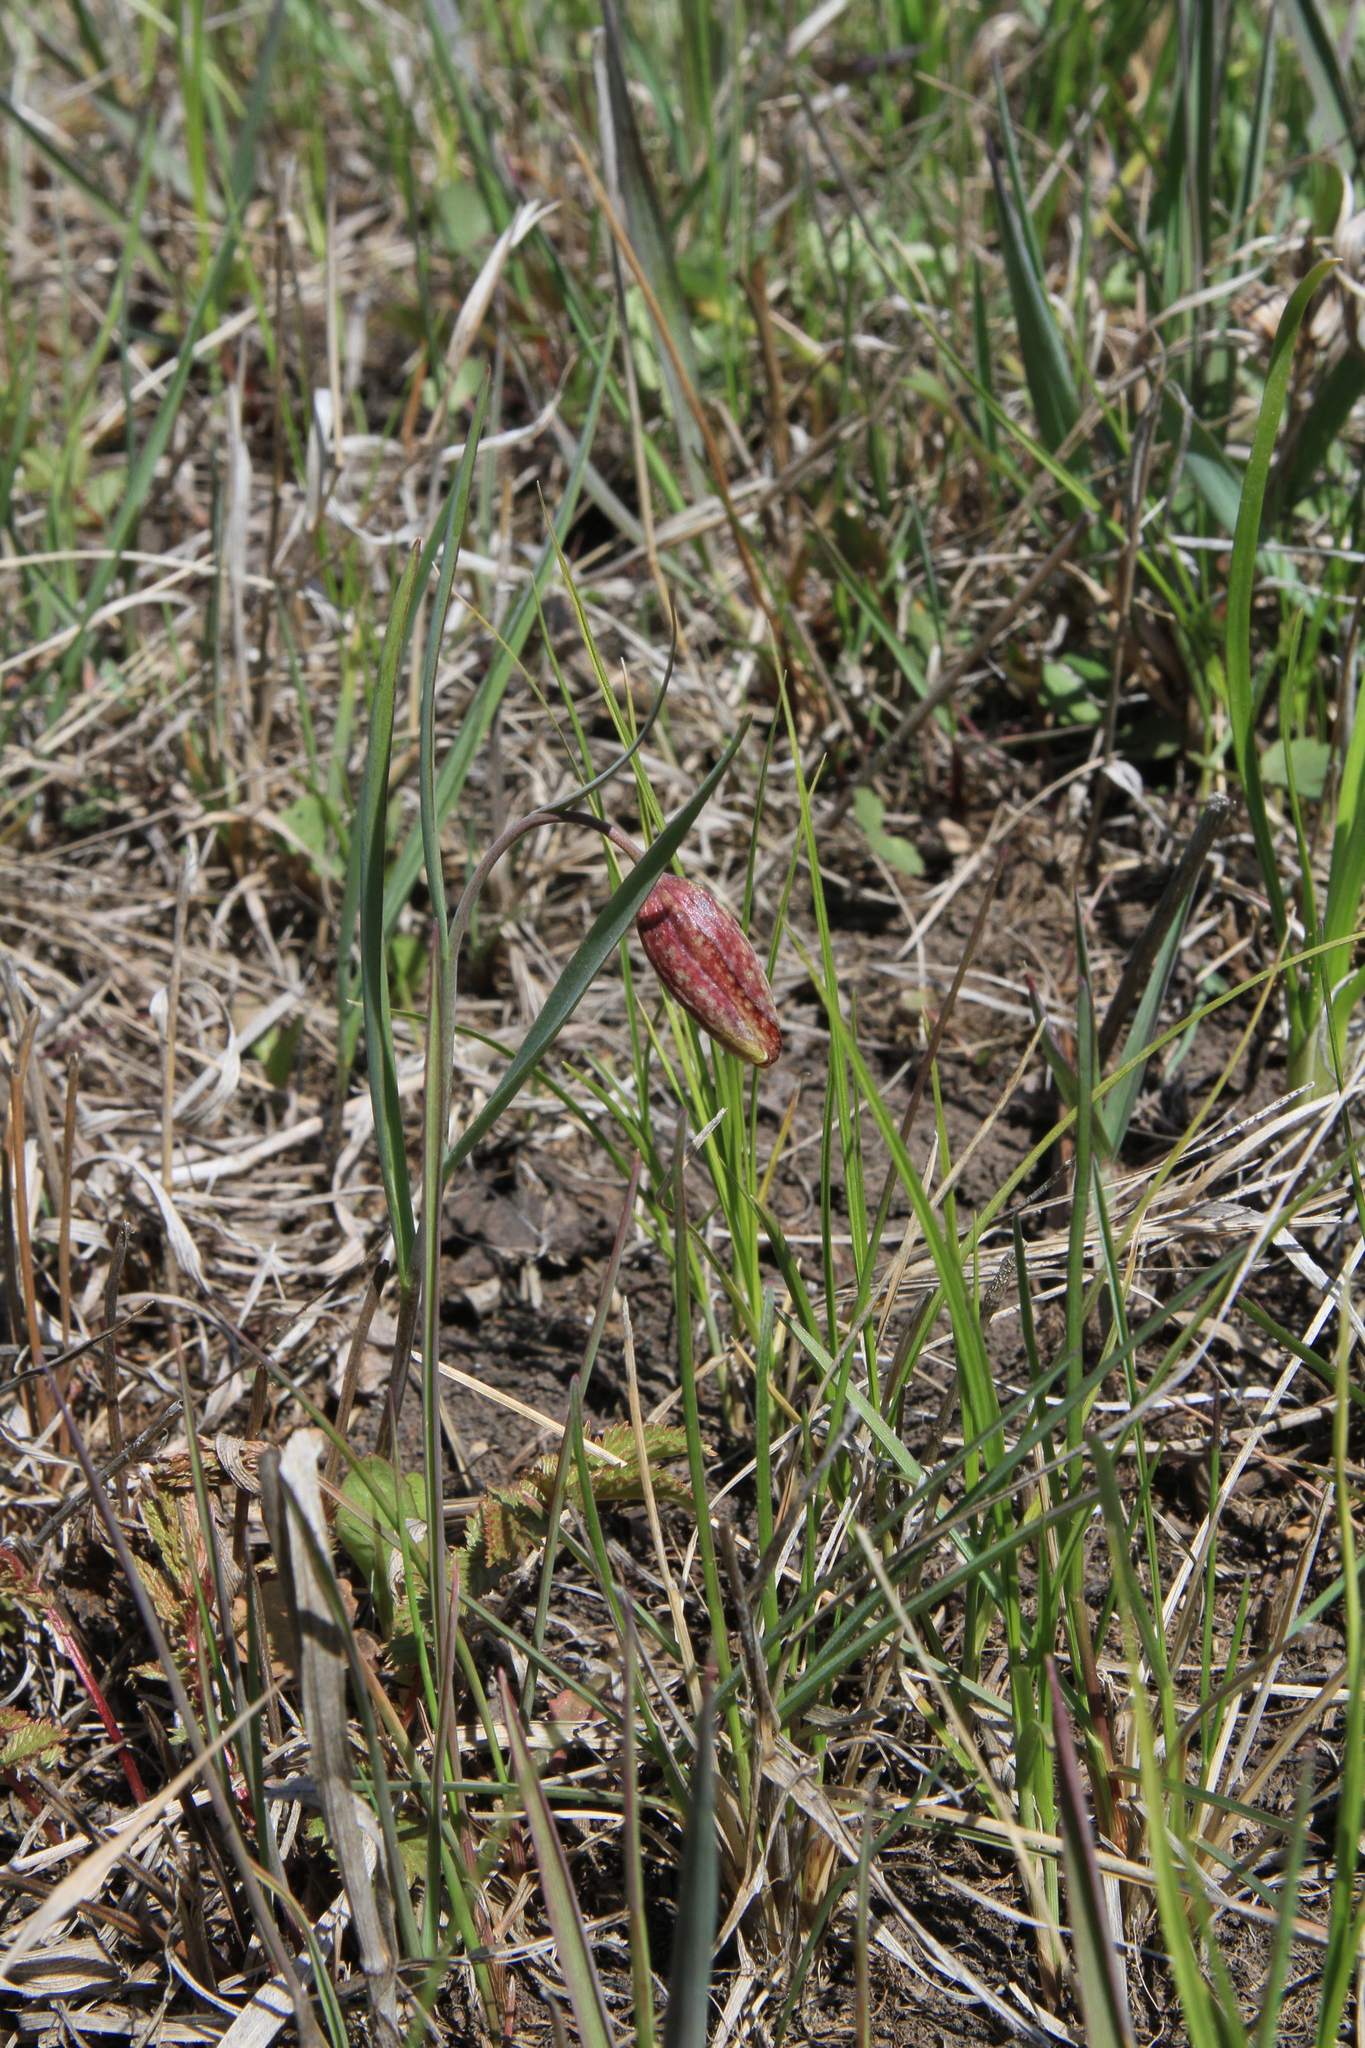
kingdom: Plantae
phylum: Tracheophyta
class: Liliopsida
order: Liliales
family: Liliaceae
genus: Fritillaria
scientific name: Fritillaria meleagroides
